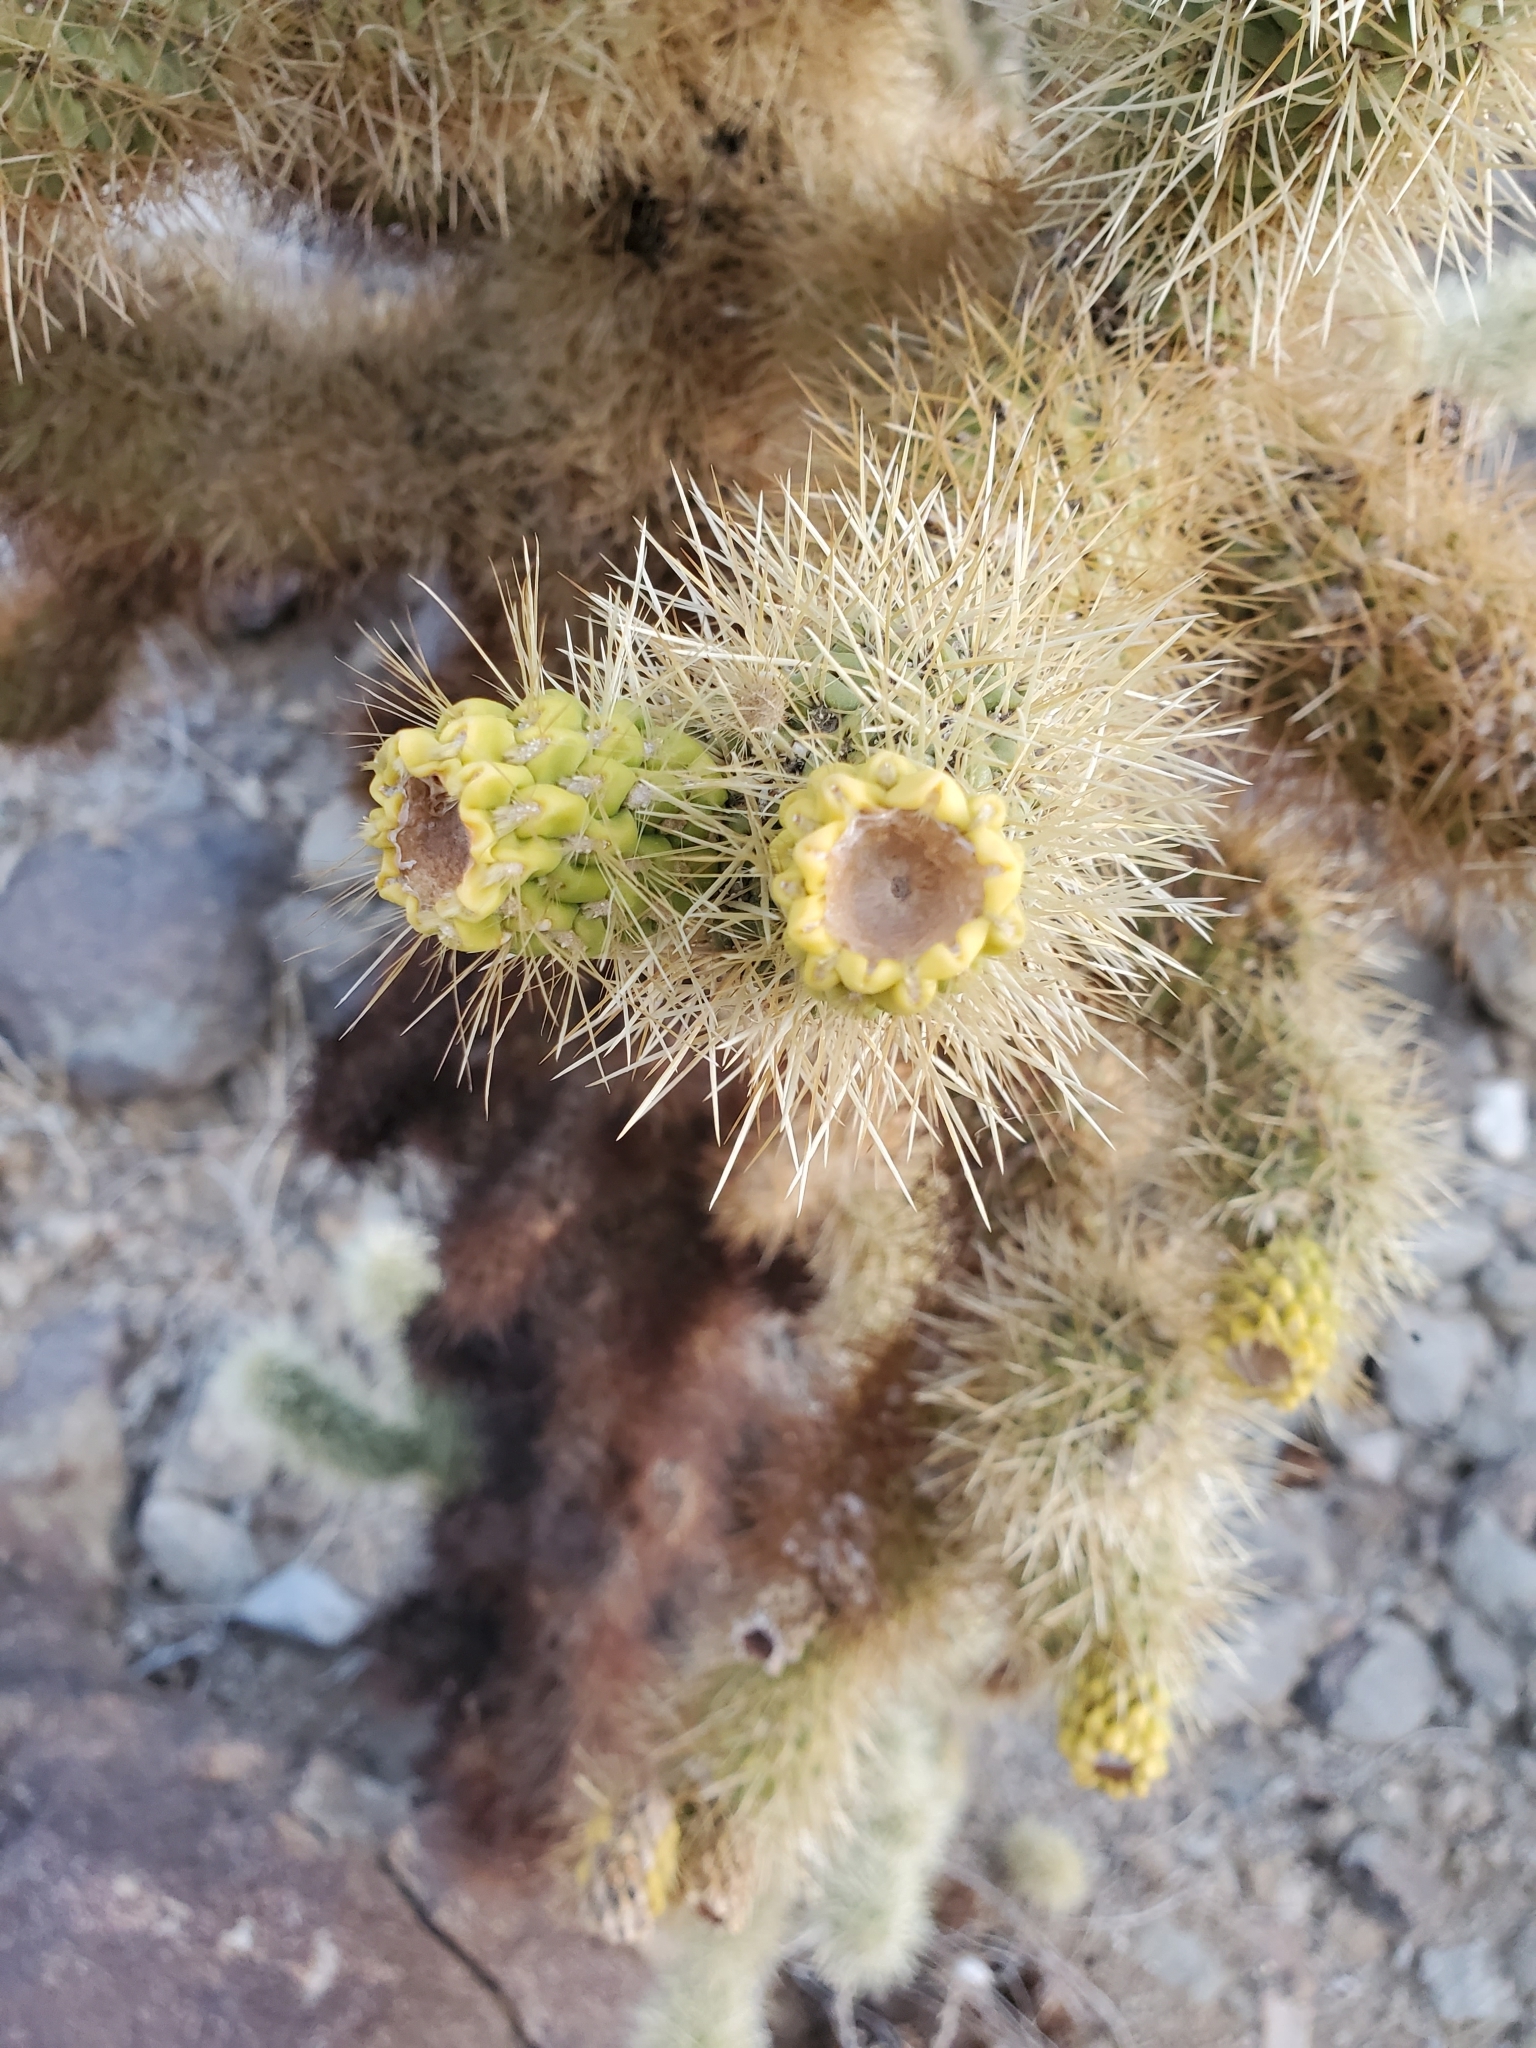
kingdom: Plantae
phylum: Tracheophyta
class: Magnoliopsida
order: Caryophyllales
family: Cactaceae
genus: Cylindropuntia
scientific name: Cylindropuntia fosbergii
